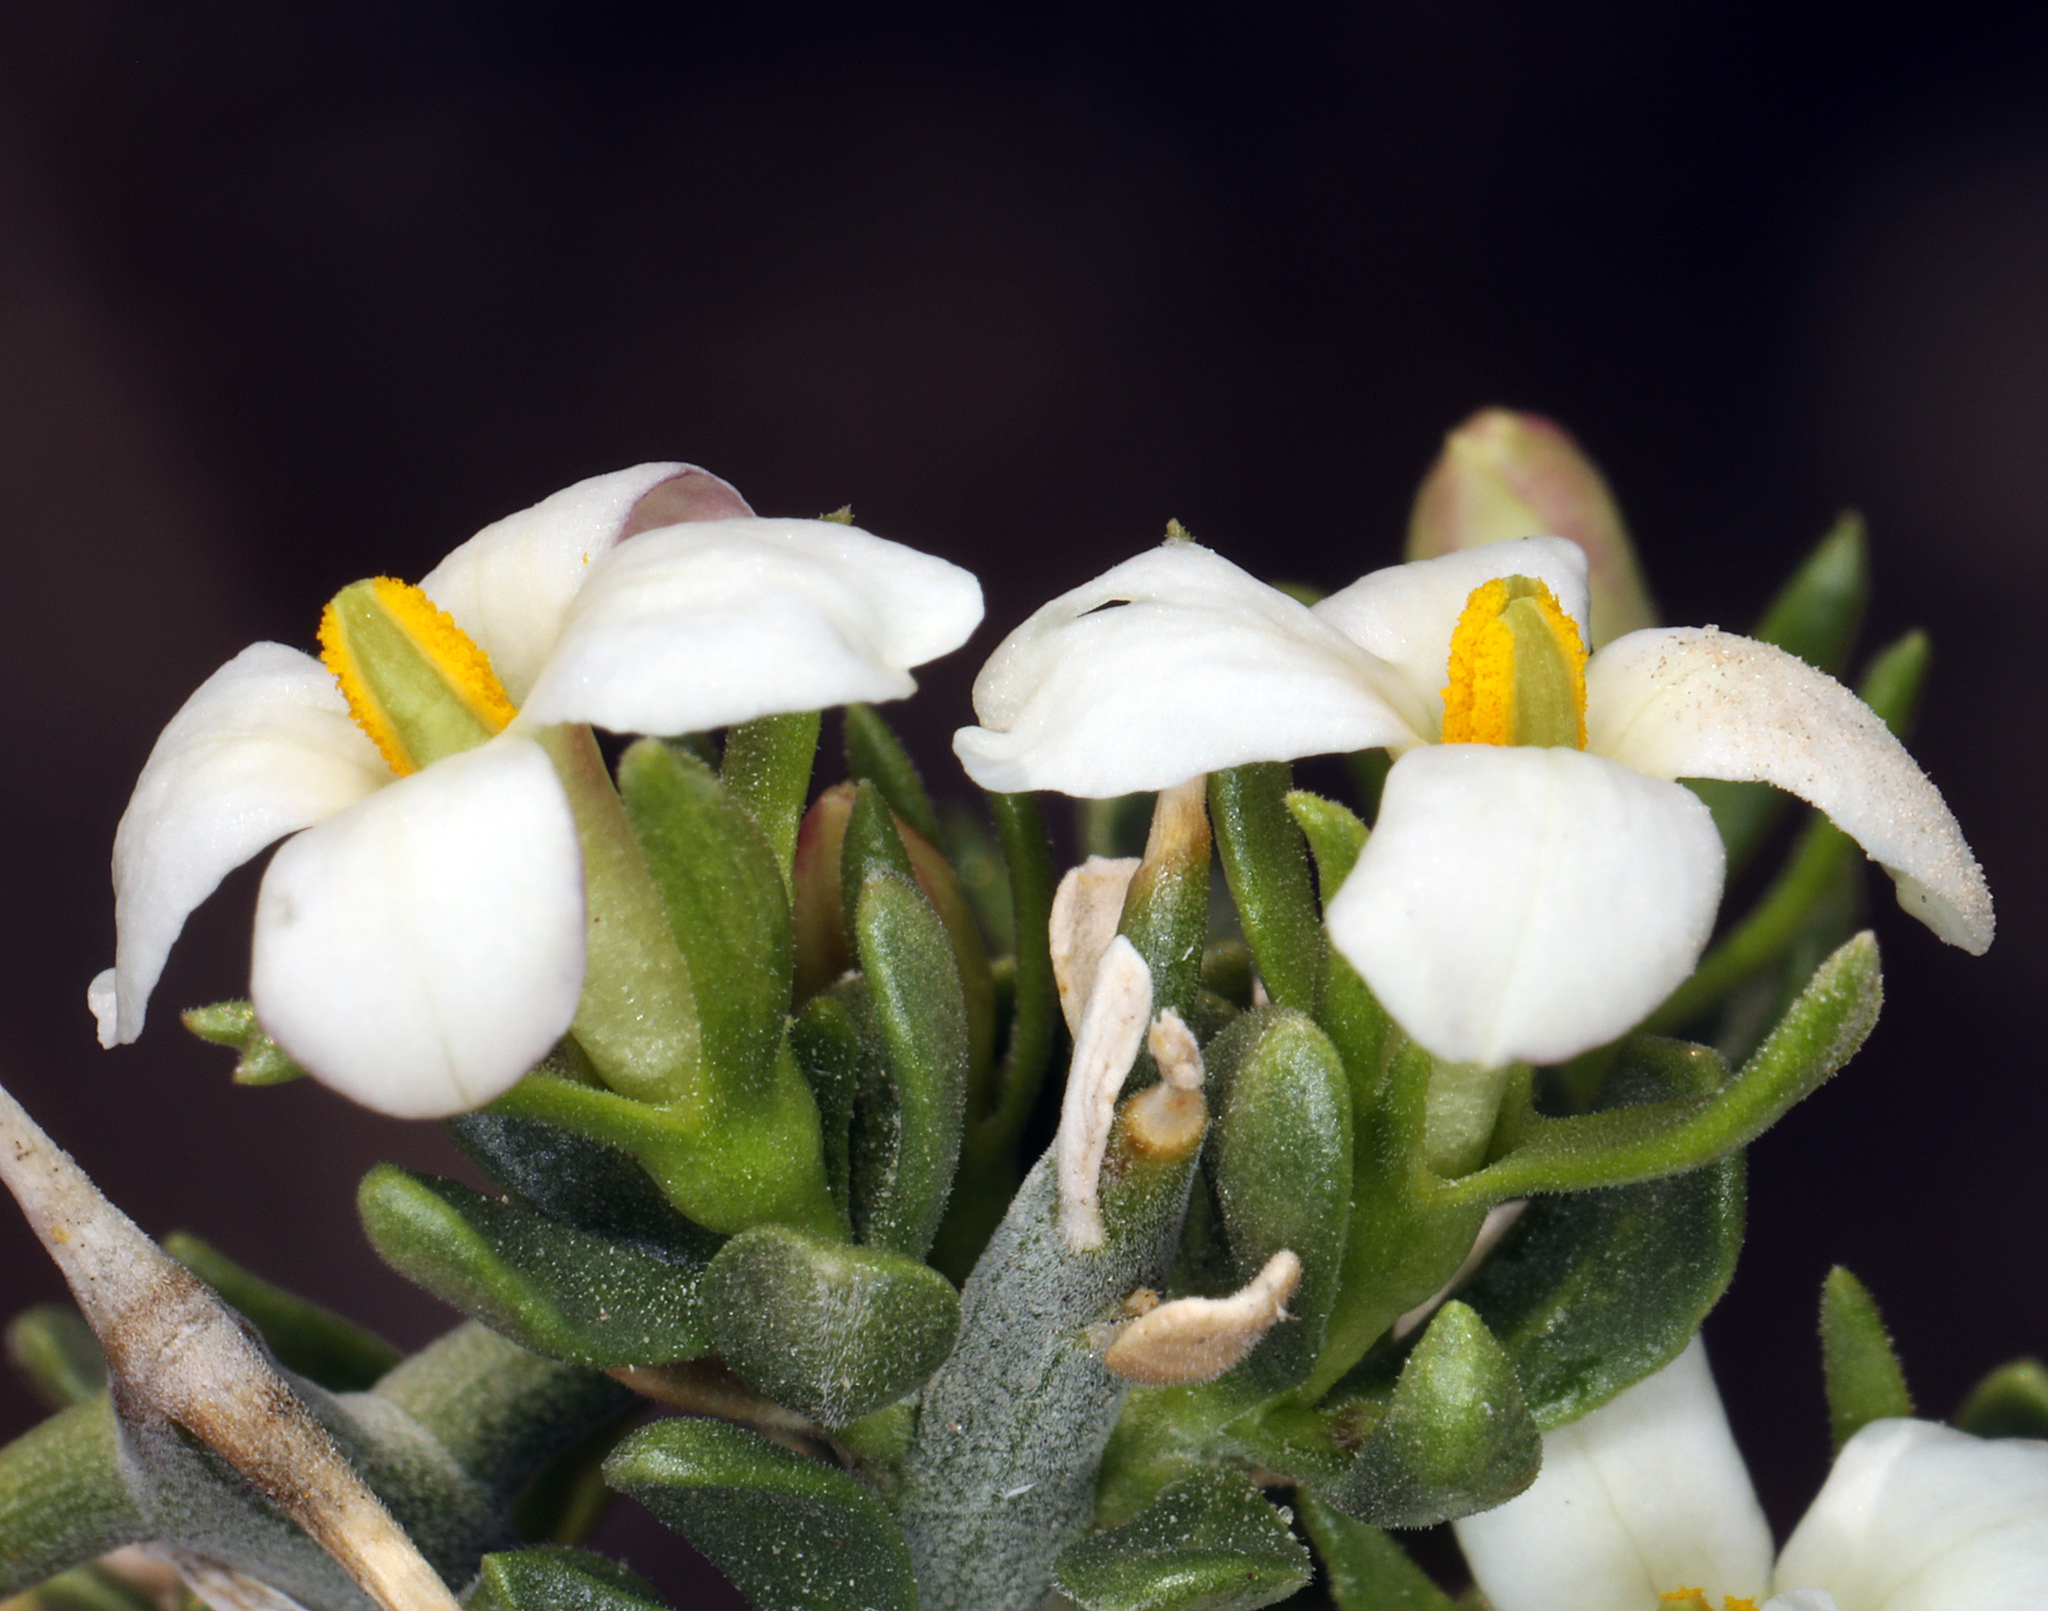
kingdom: Plantae
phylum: Tracheophyta
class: Magnoliopsida
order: Lamiales
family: Oleaceae
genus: Menodora
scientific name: Menodora spinescens
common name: Spiny menodora
